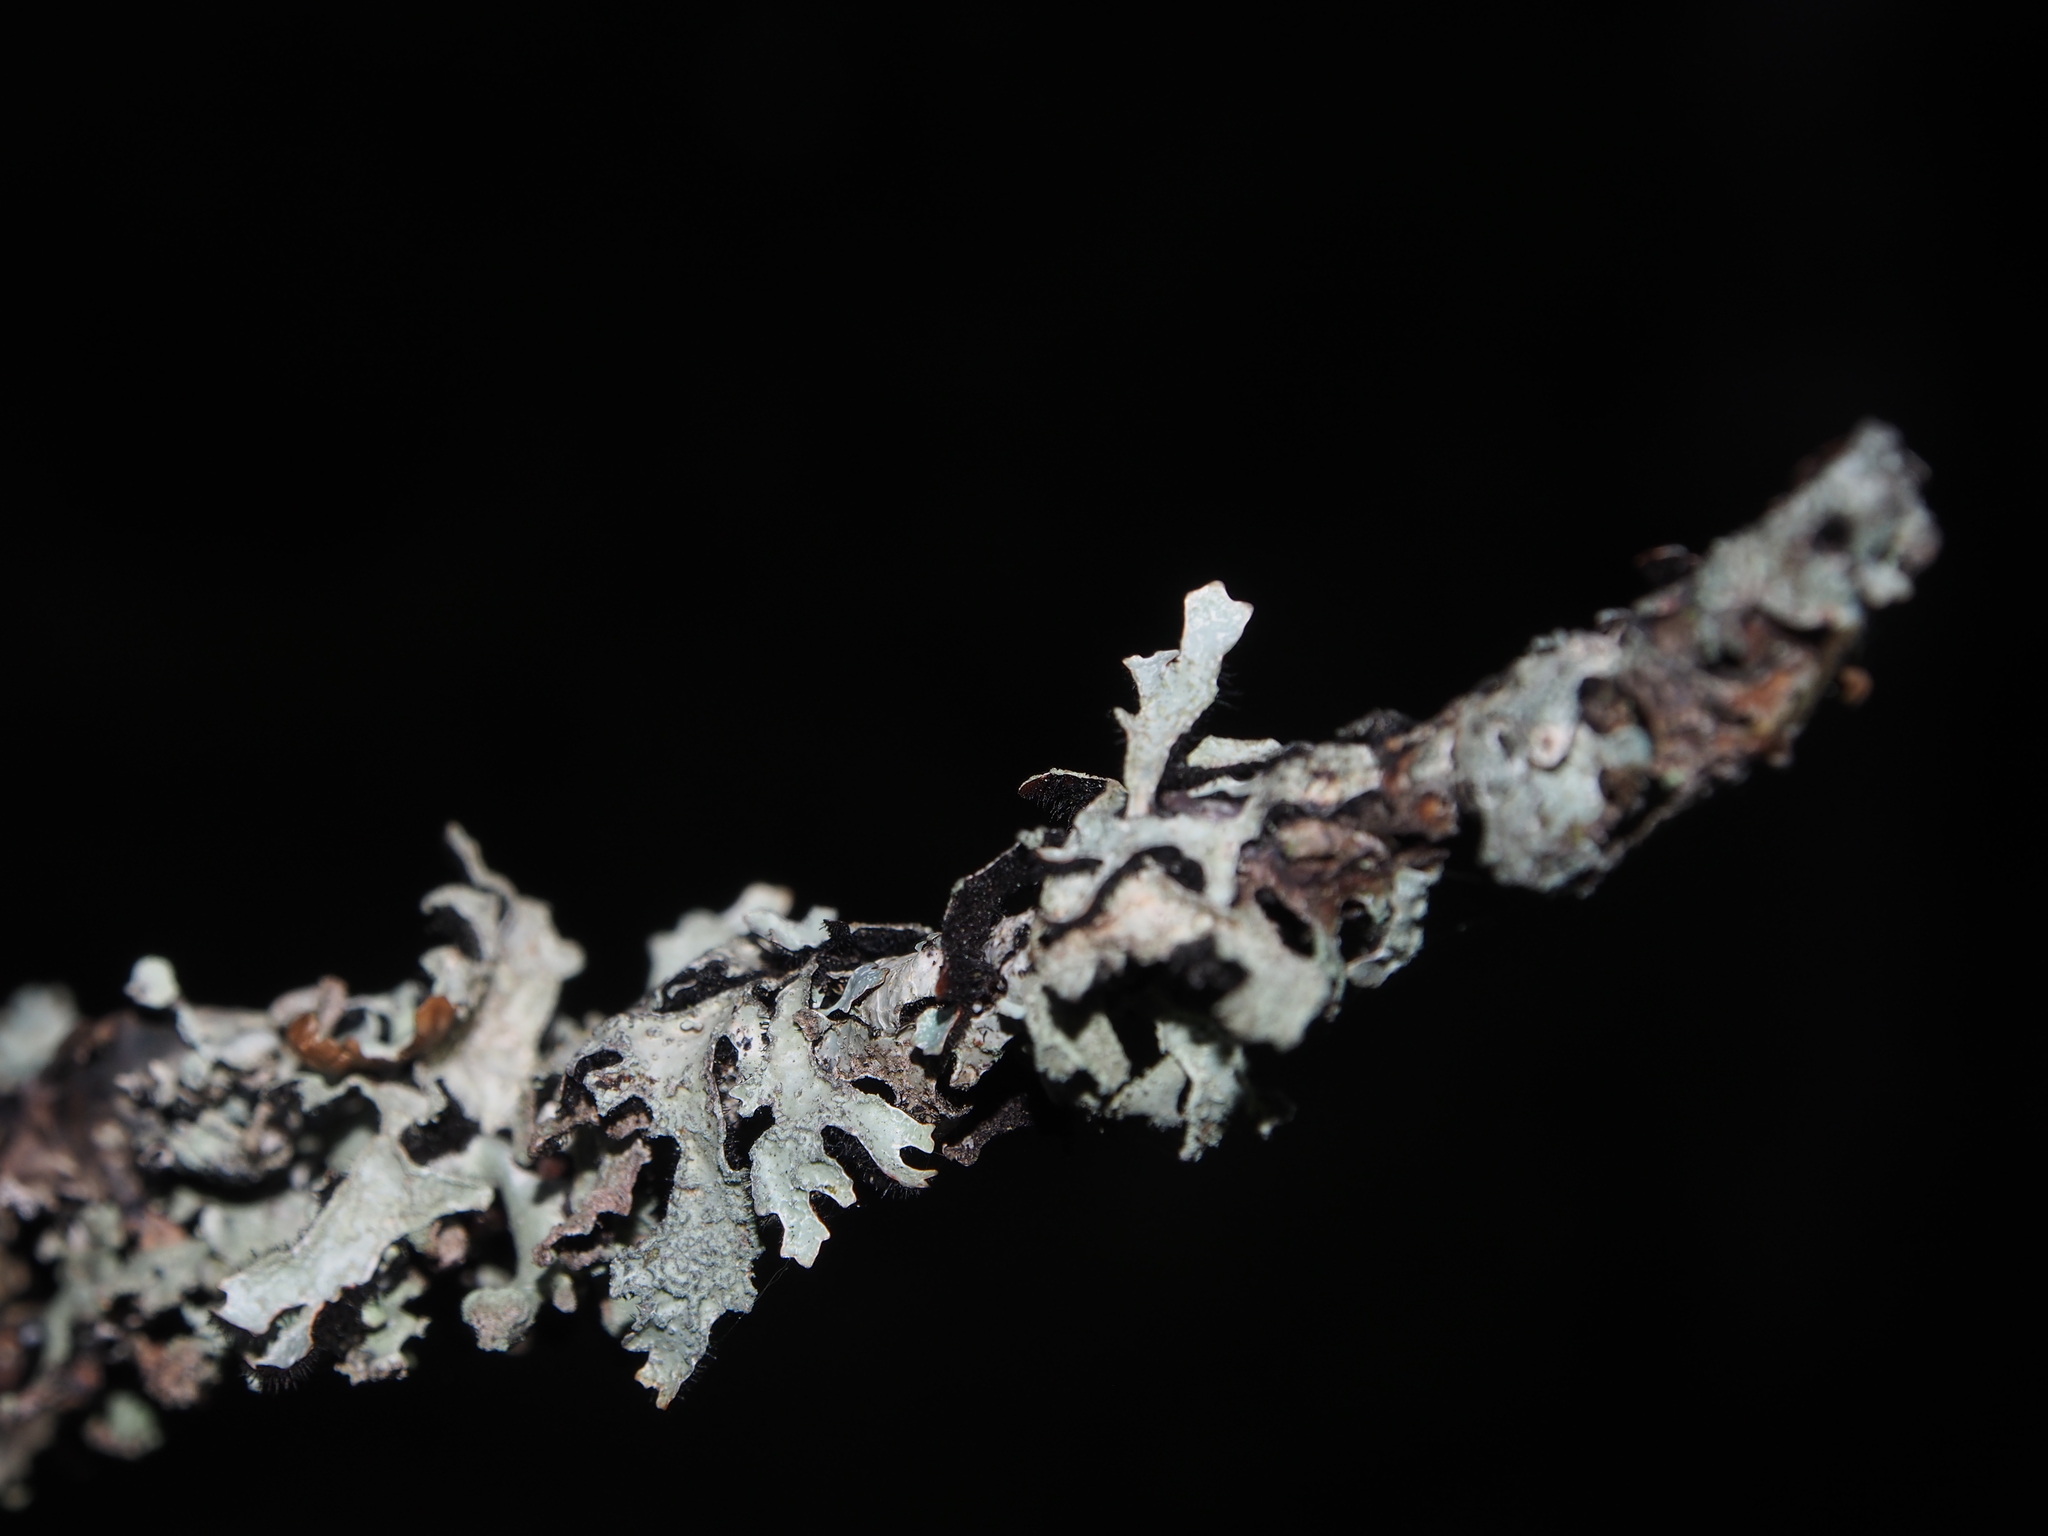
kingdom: Fungi
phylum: Ascomycota
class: Lecanoromycetes
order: Lecanorales
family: Parmeliaceae
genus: Parmelia
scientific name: Parmelia sulcata
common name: Netted shield lichen
